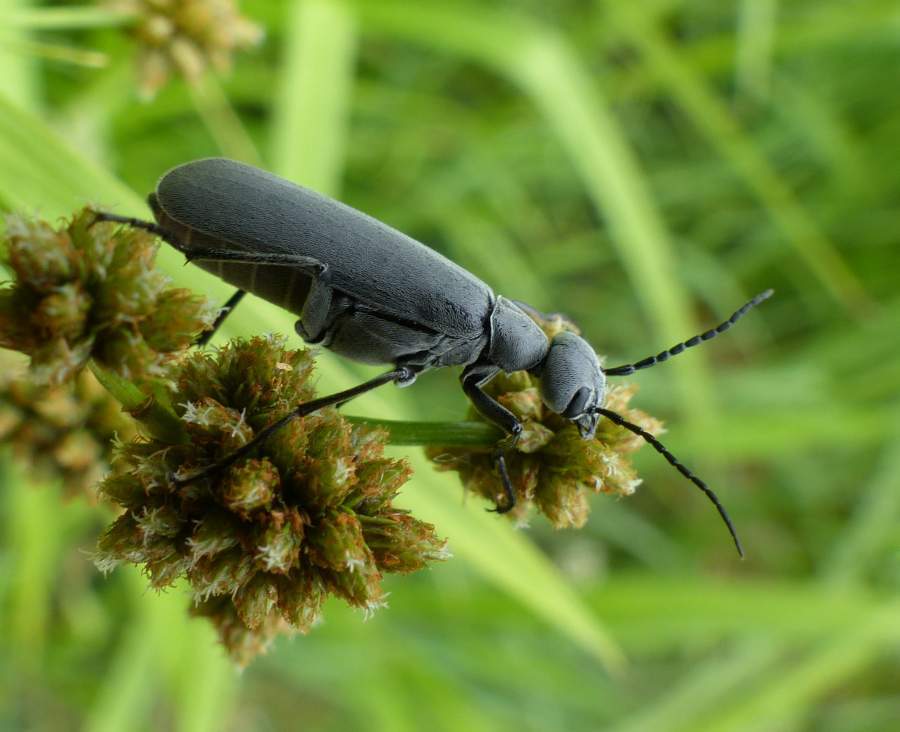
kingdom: Animalia
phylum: Arthropoda
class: Insecta
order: Coleoptera
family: Meloidae
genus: Epicauta
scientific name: Epicauta murina
